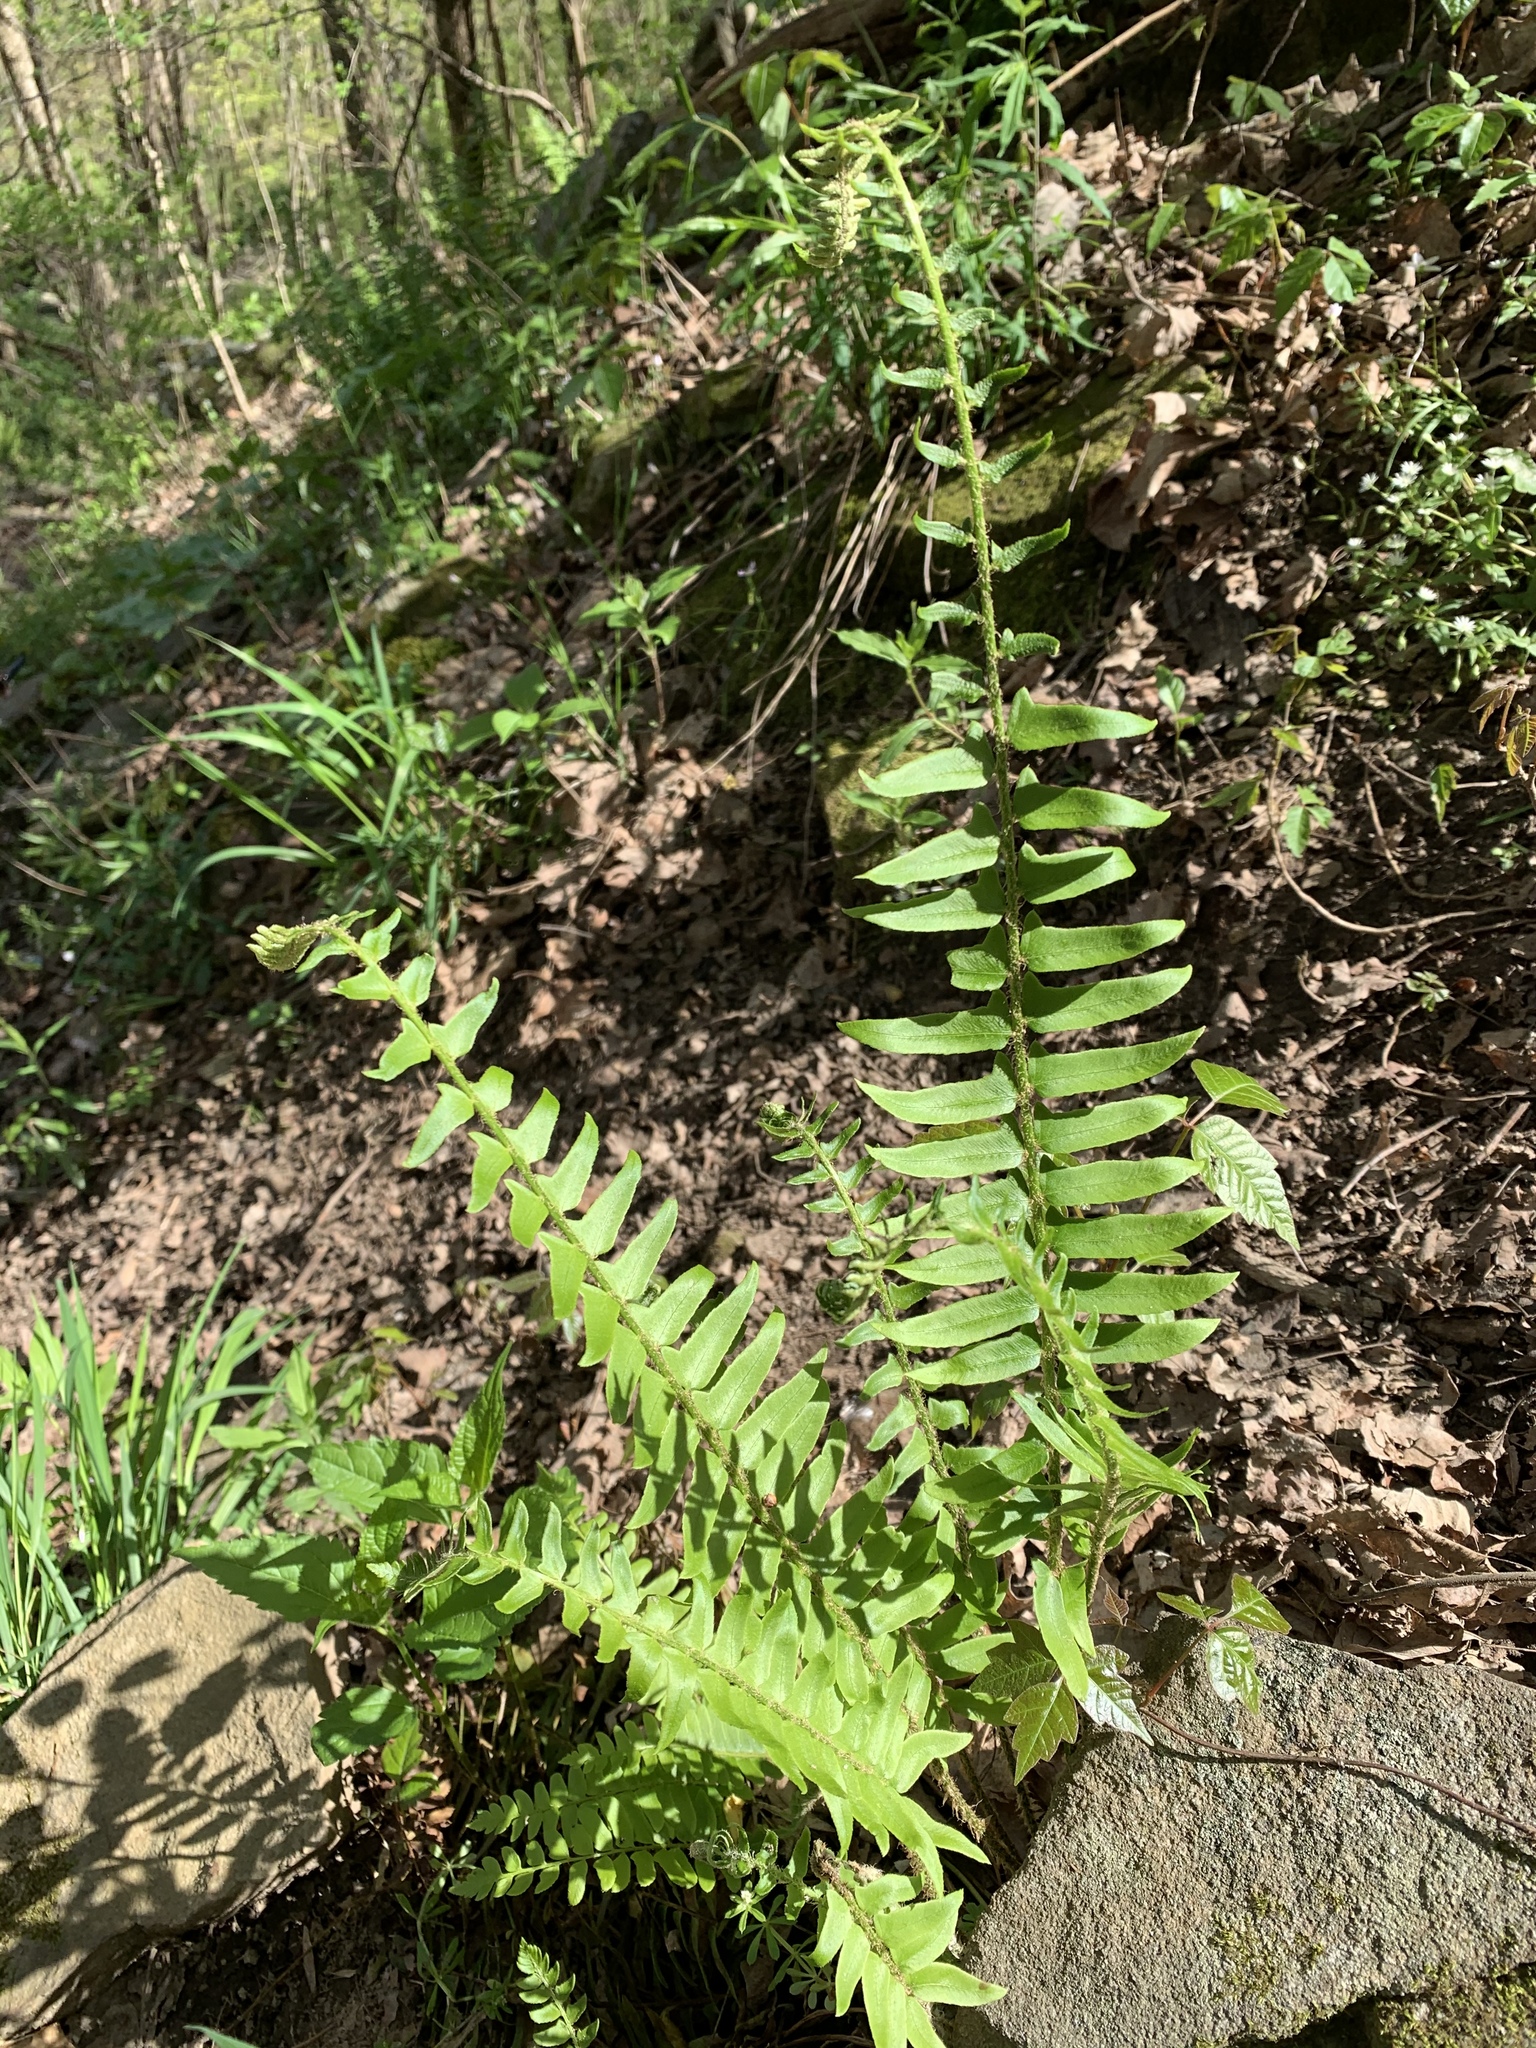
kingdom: Plantae
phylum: Tracheophyta
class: Polypodiopsida
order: Polypodiales
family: Dryopteridaceae
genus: Polystichum
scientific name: Polystichum acrostichoides
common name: Christmas fern
